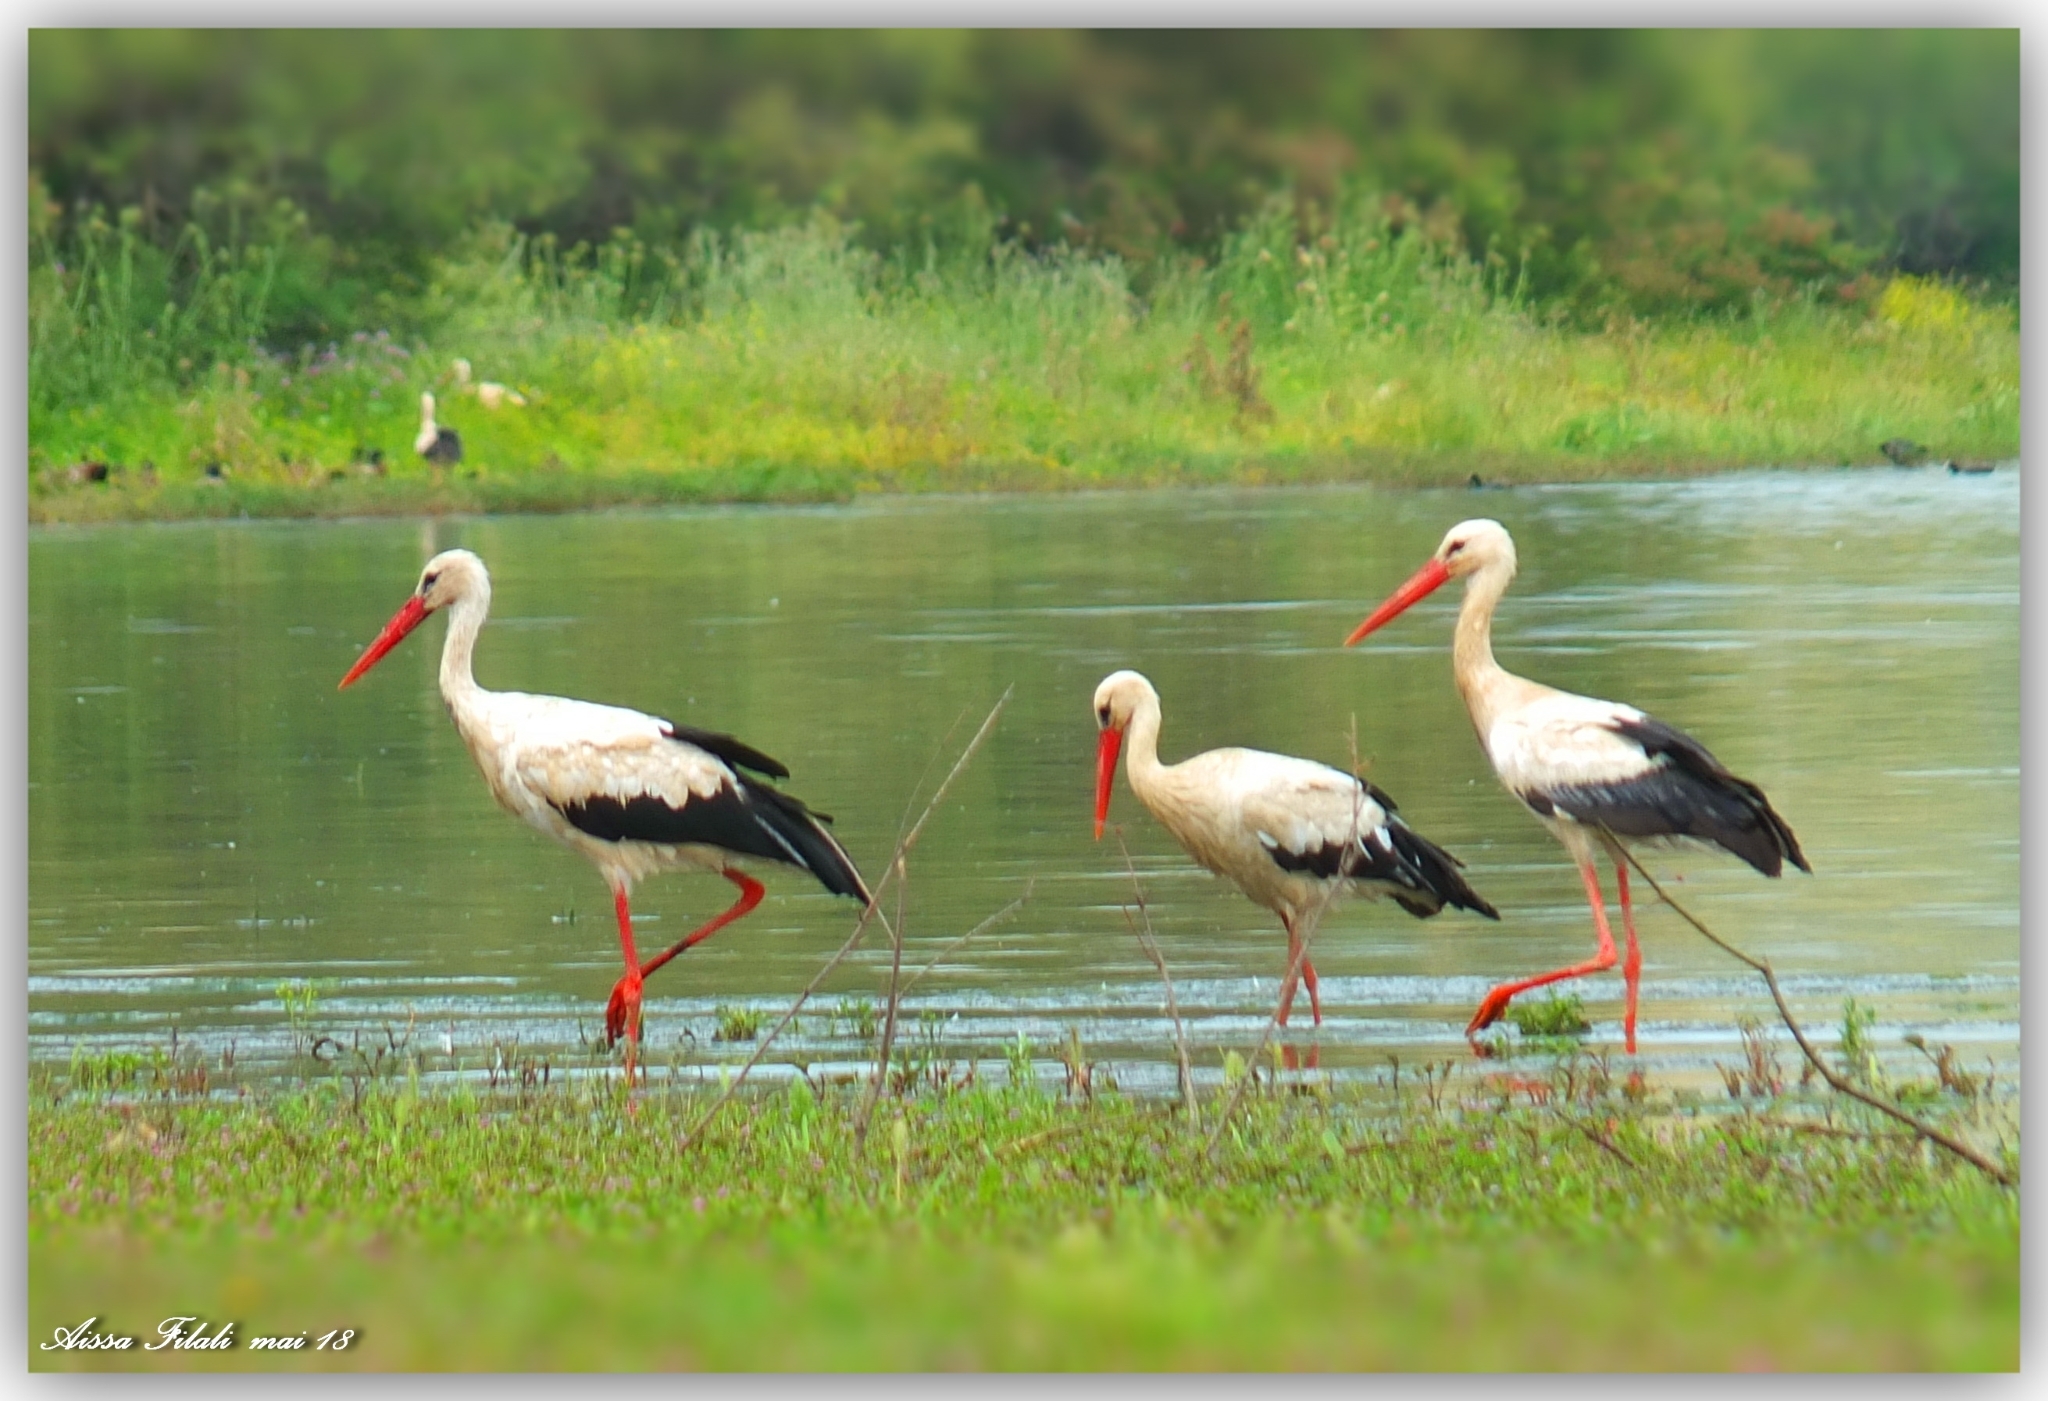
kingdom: Animalia
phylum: Chordata
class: Aves
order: Ciconiiformes
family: Ciconiidae
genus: Ciconia
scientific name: Ciconia ciconia
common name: White stork
